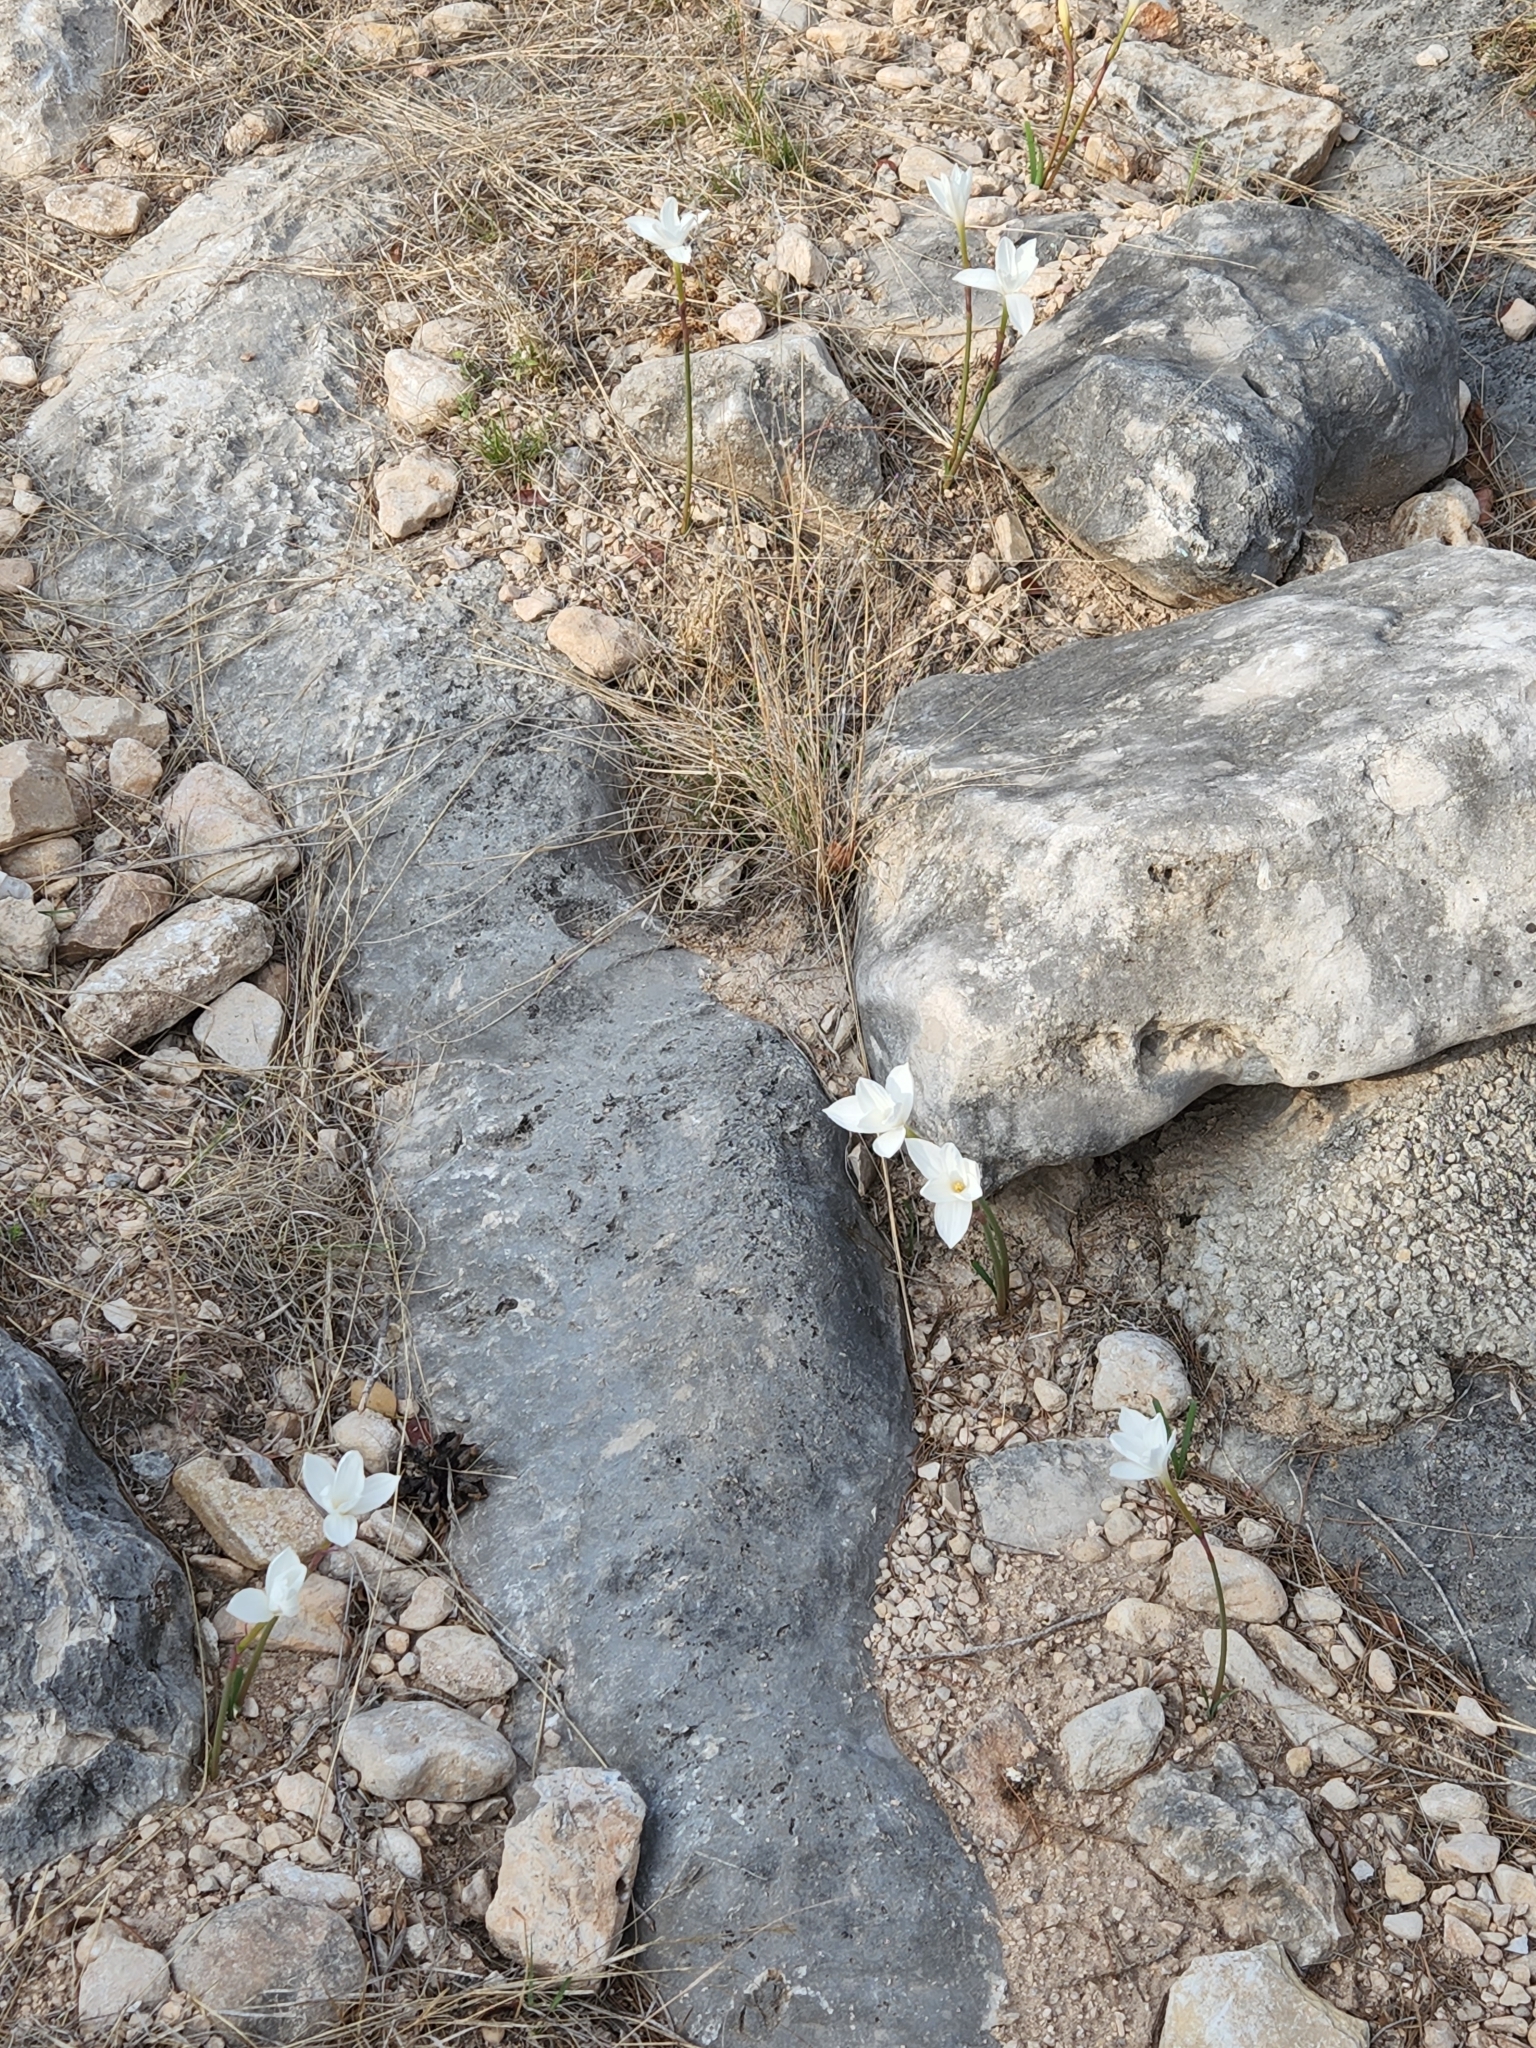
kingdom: Plantae
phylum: Tracheophyta
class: Liliopsida
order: Asparagales
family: Amaryllidaceae
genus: Zephyranthes
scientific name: Zephyranthes drummondii
